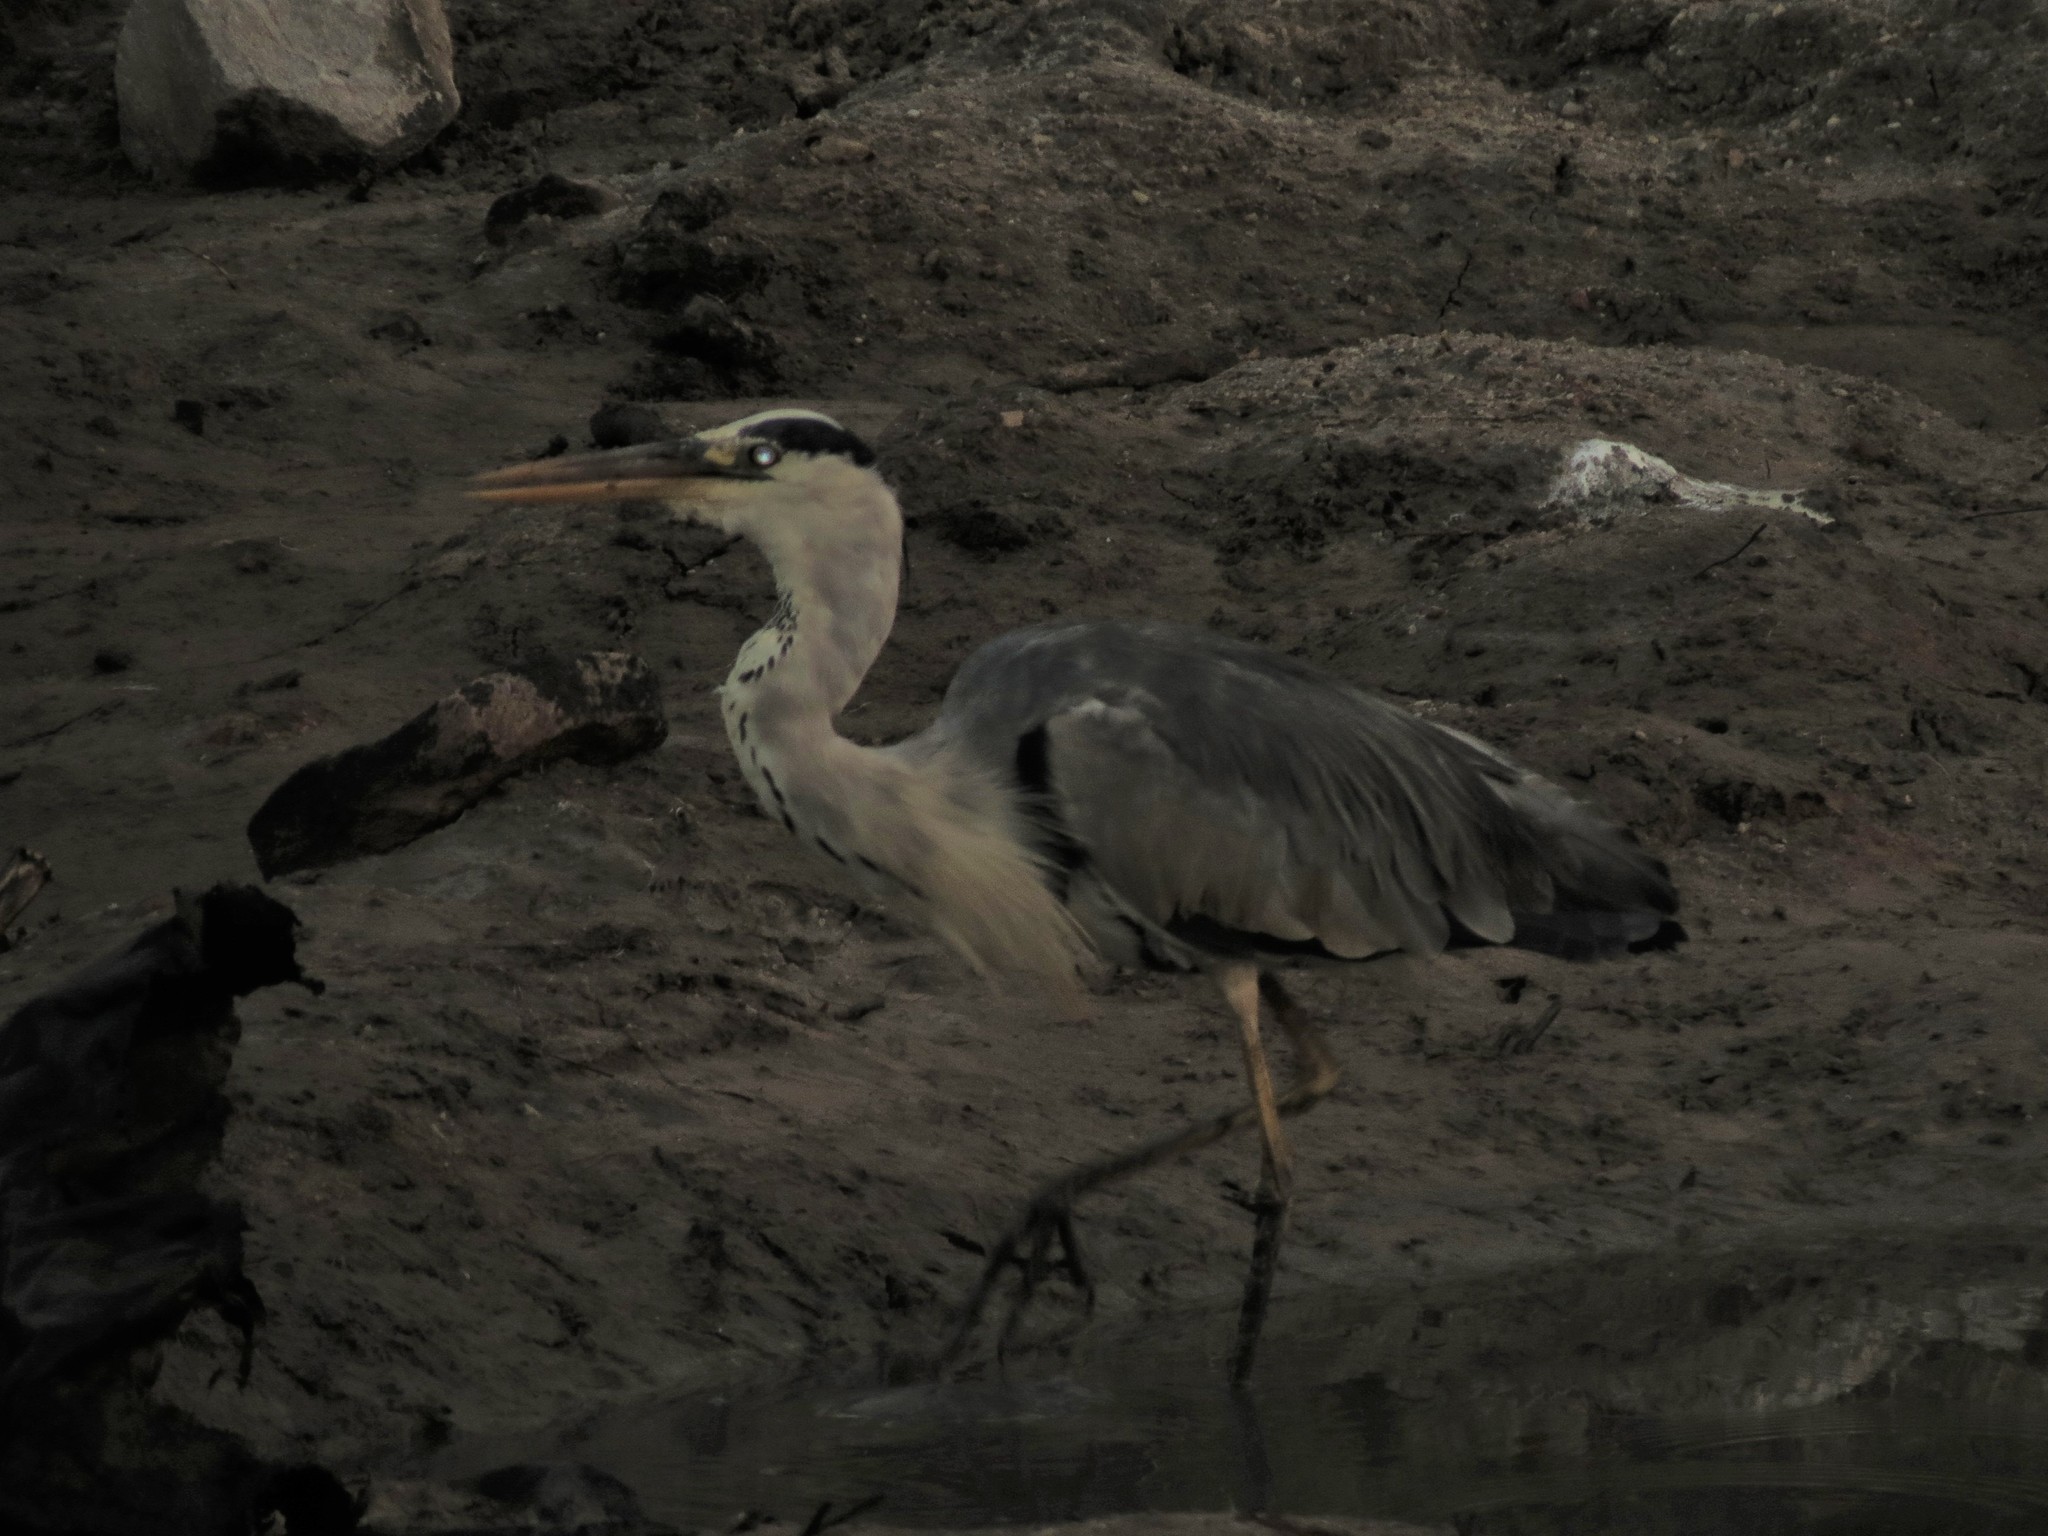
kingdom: Animalia
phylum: Chordata
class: Aves
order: Pelecaniformes
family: Ardeidae
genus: Ardea
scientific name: Ardea cinerea
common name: Grey heron
